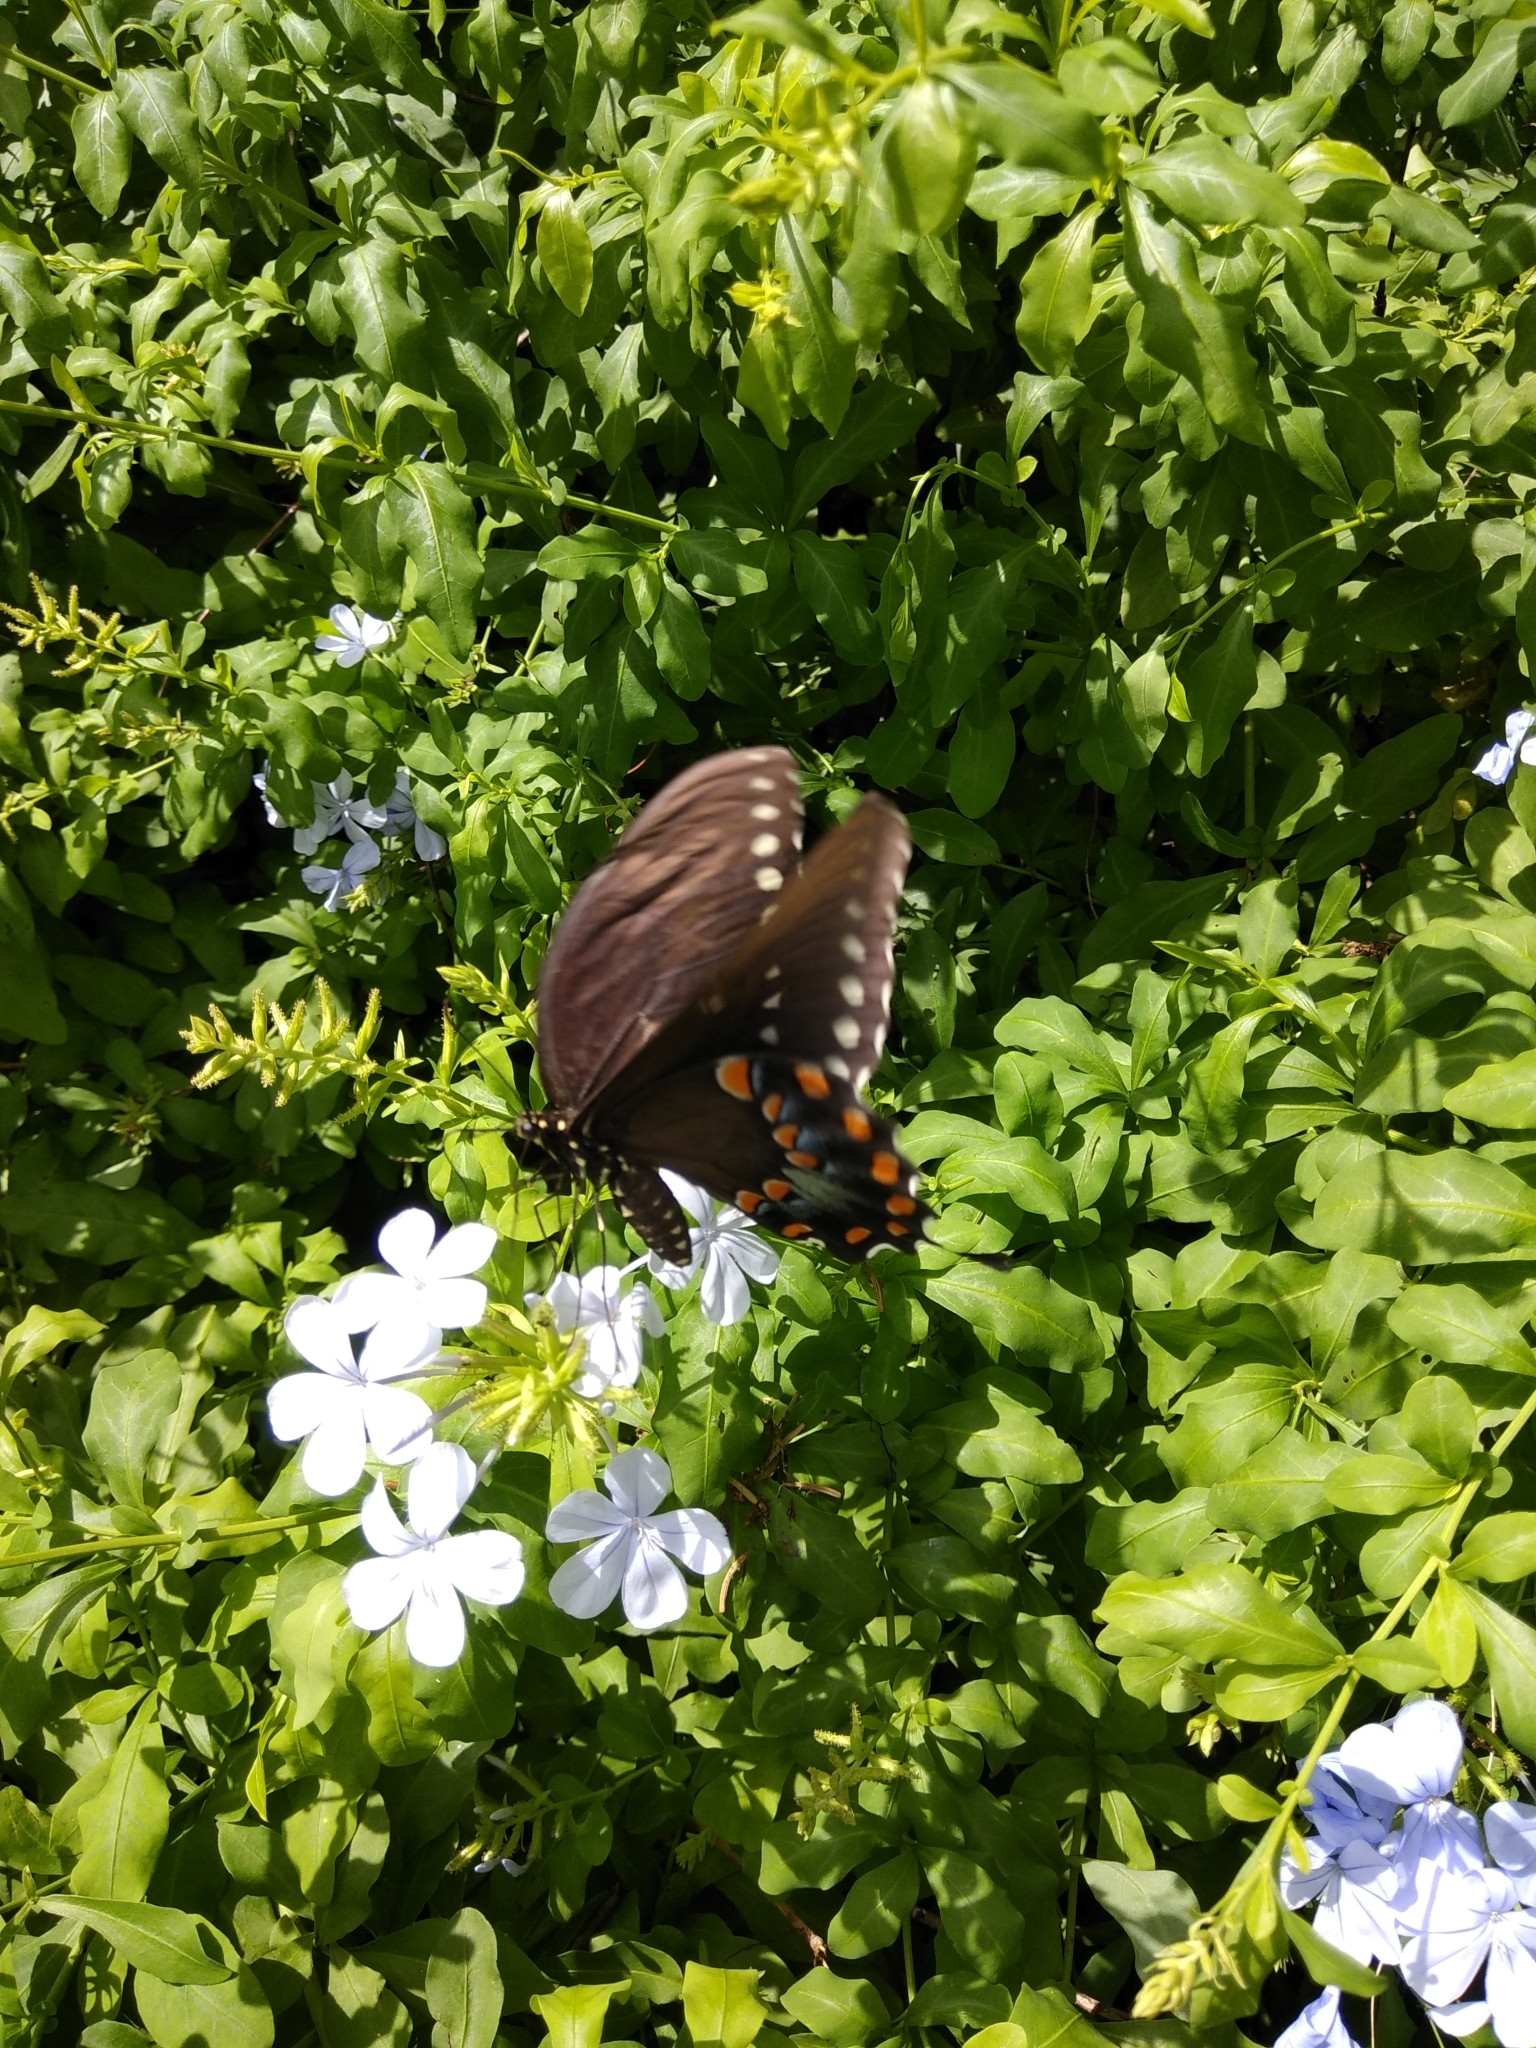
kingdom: Animalia
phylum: Arthropoda
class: Insecta
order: Lepidoptera
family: Papilionidae
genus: Papilio
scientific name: Papilio troilus
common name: Spicebush swallowtail
